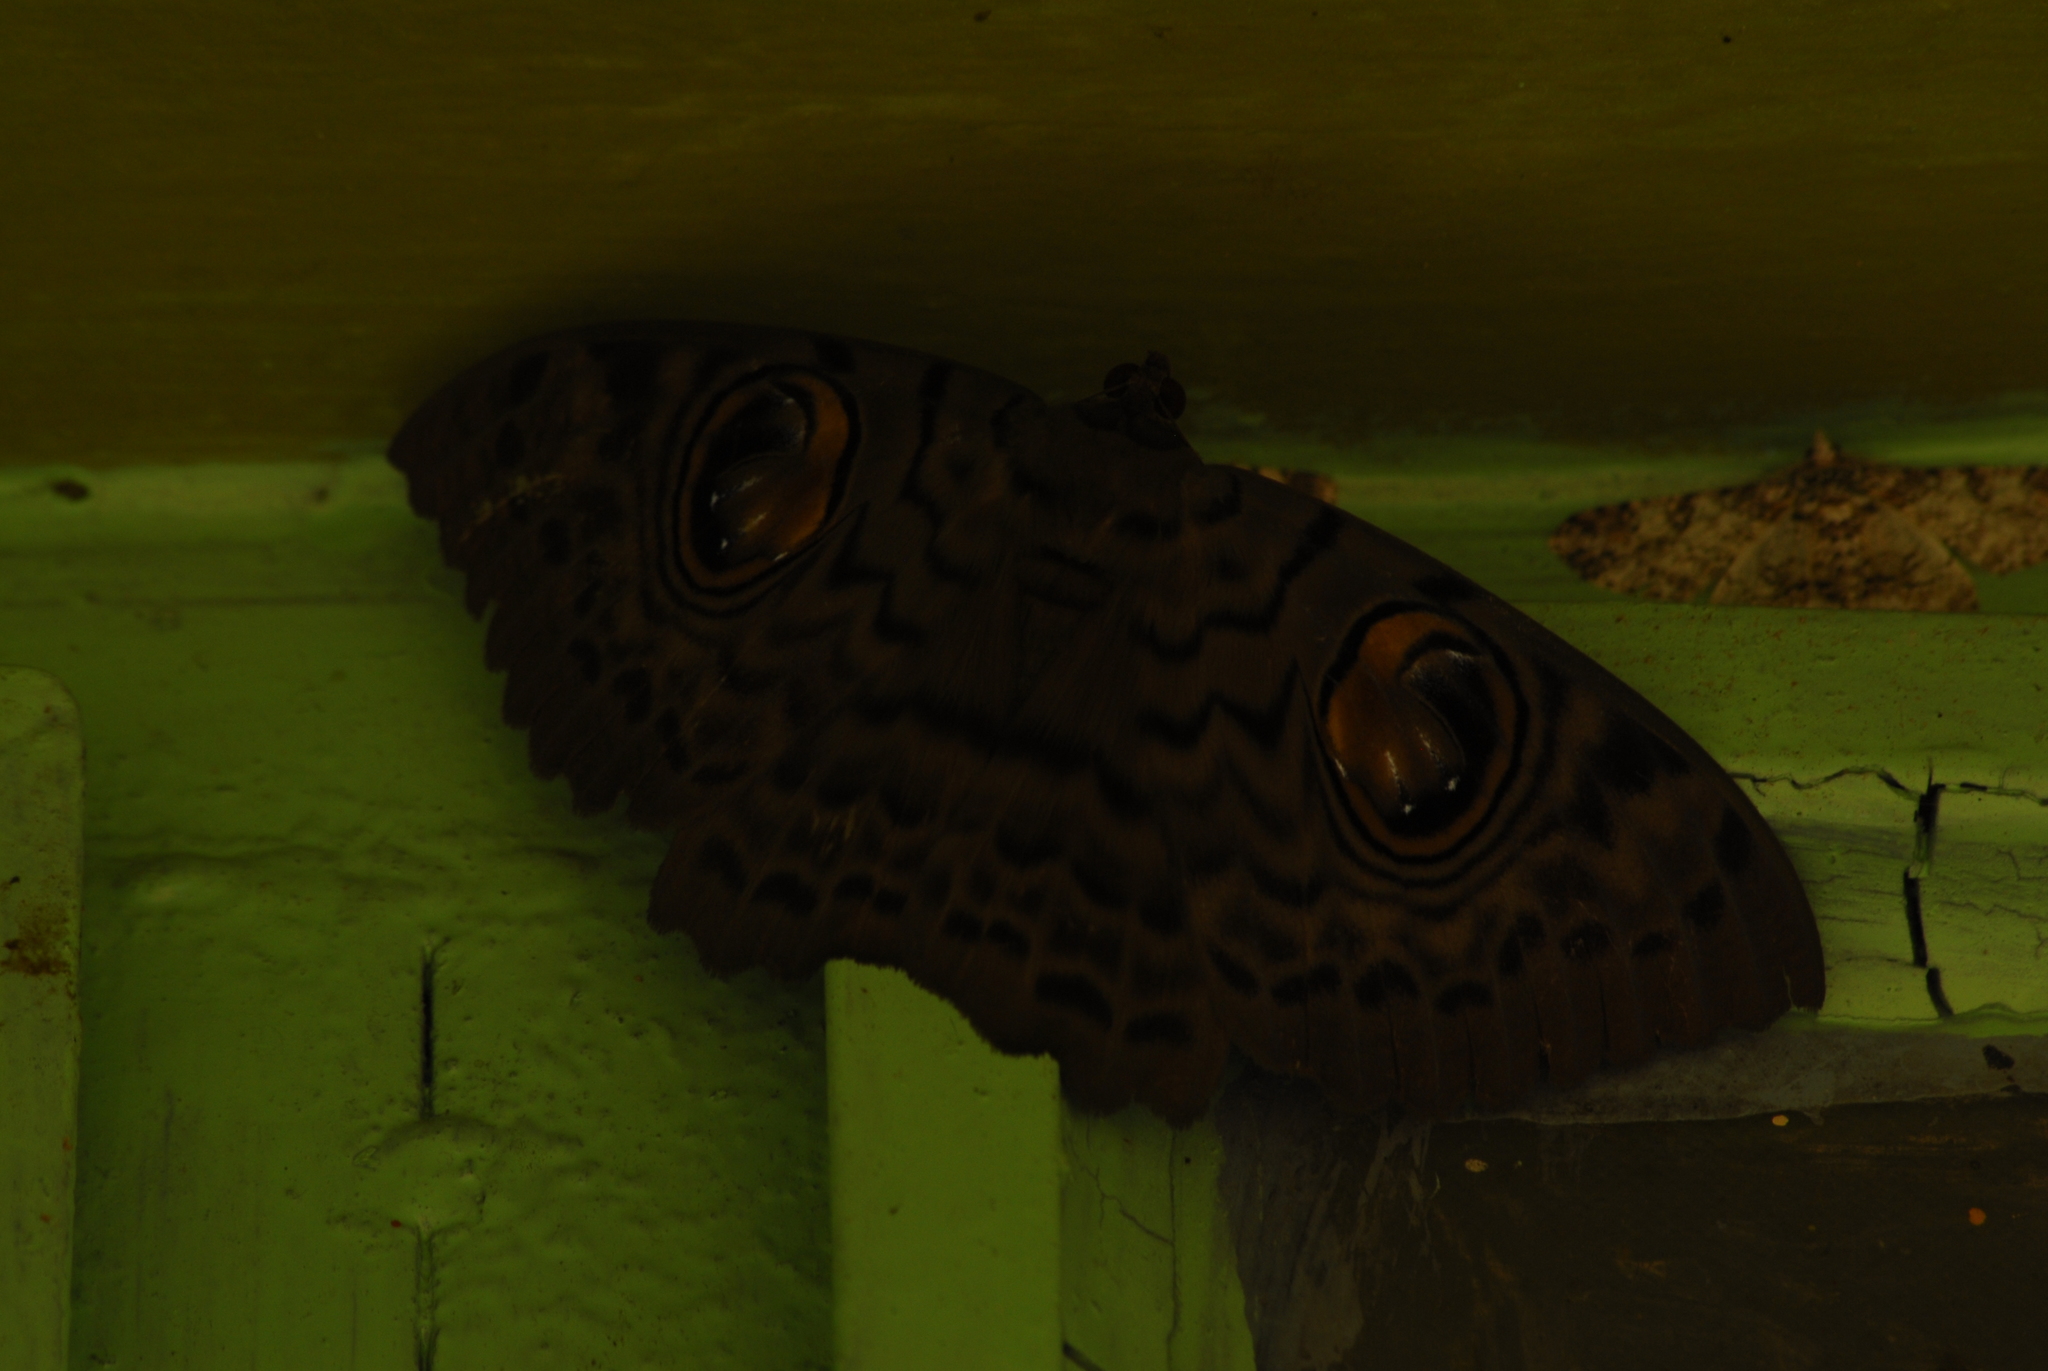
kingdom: Animalia
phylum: Arthropoda
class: Insecta
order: Lepidoptera
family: Erebidae
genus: Erebus
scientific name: Erebus macrops
